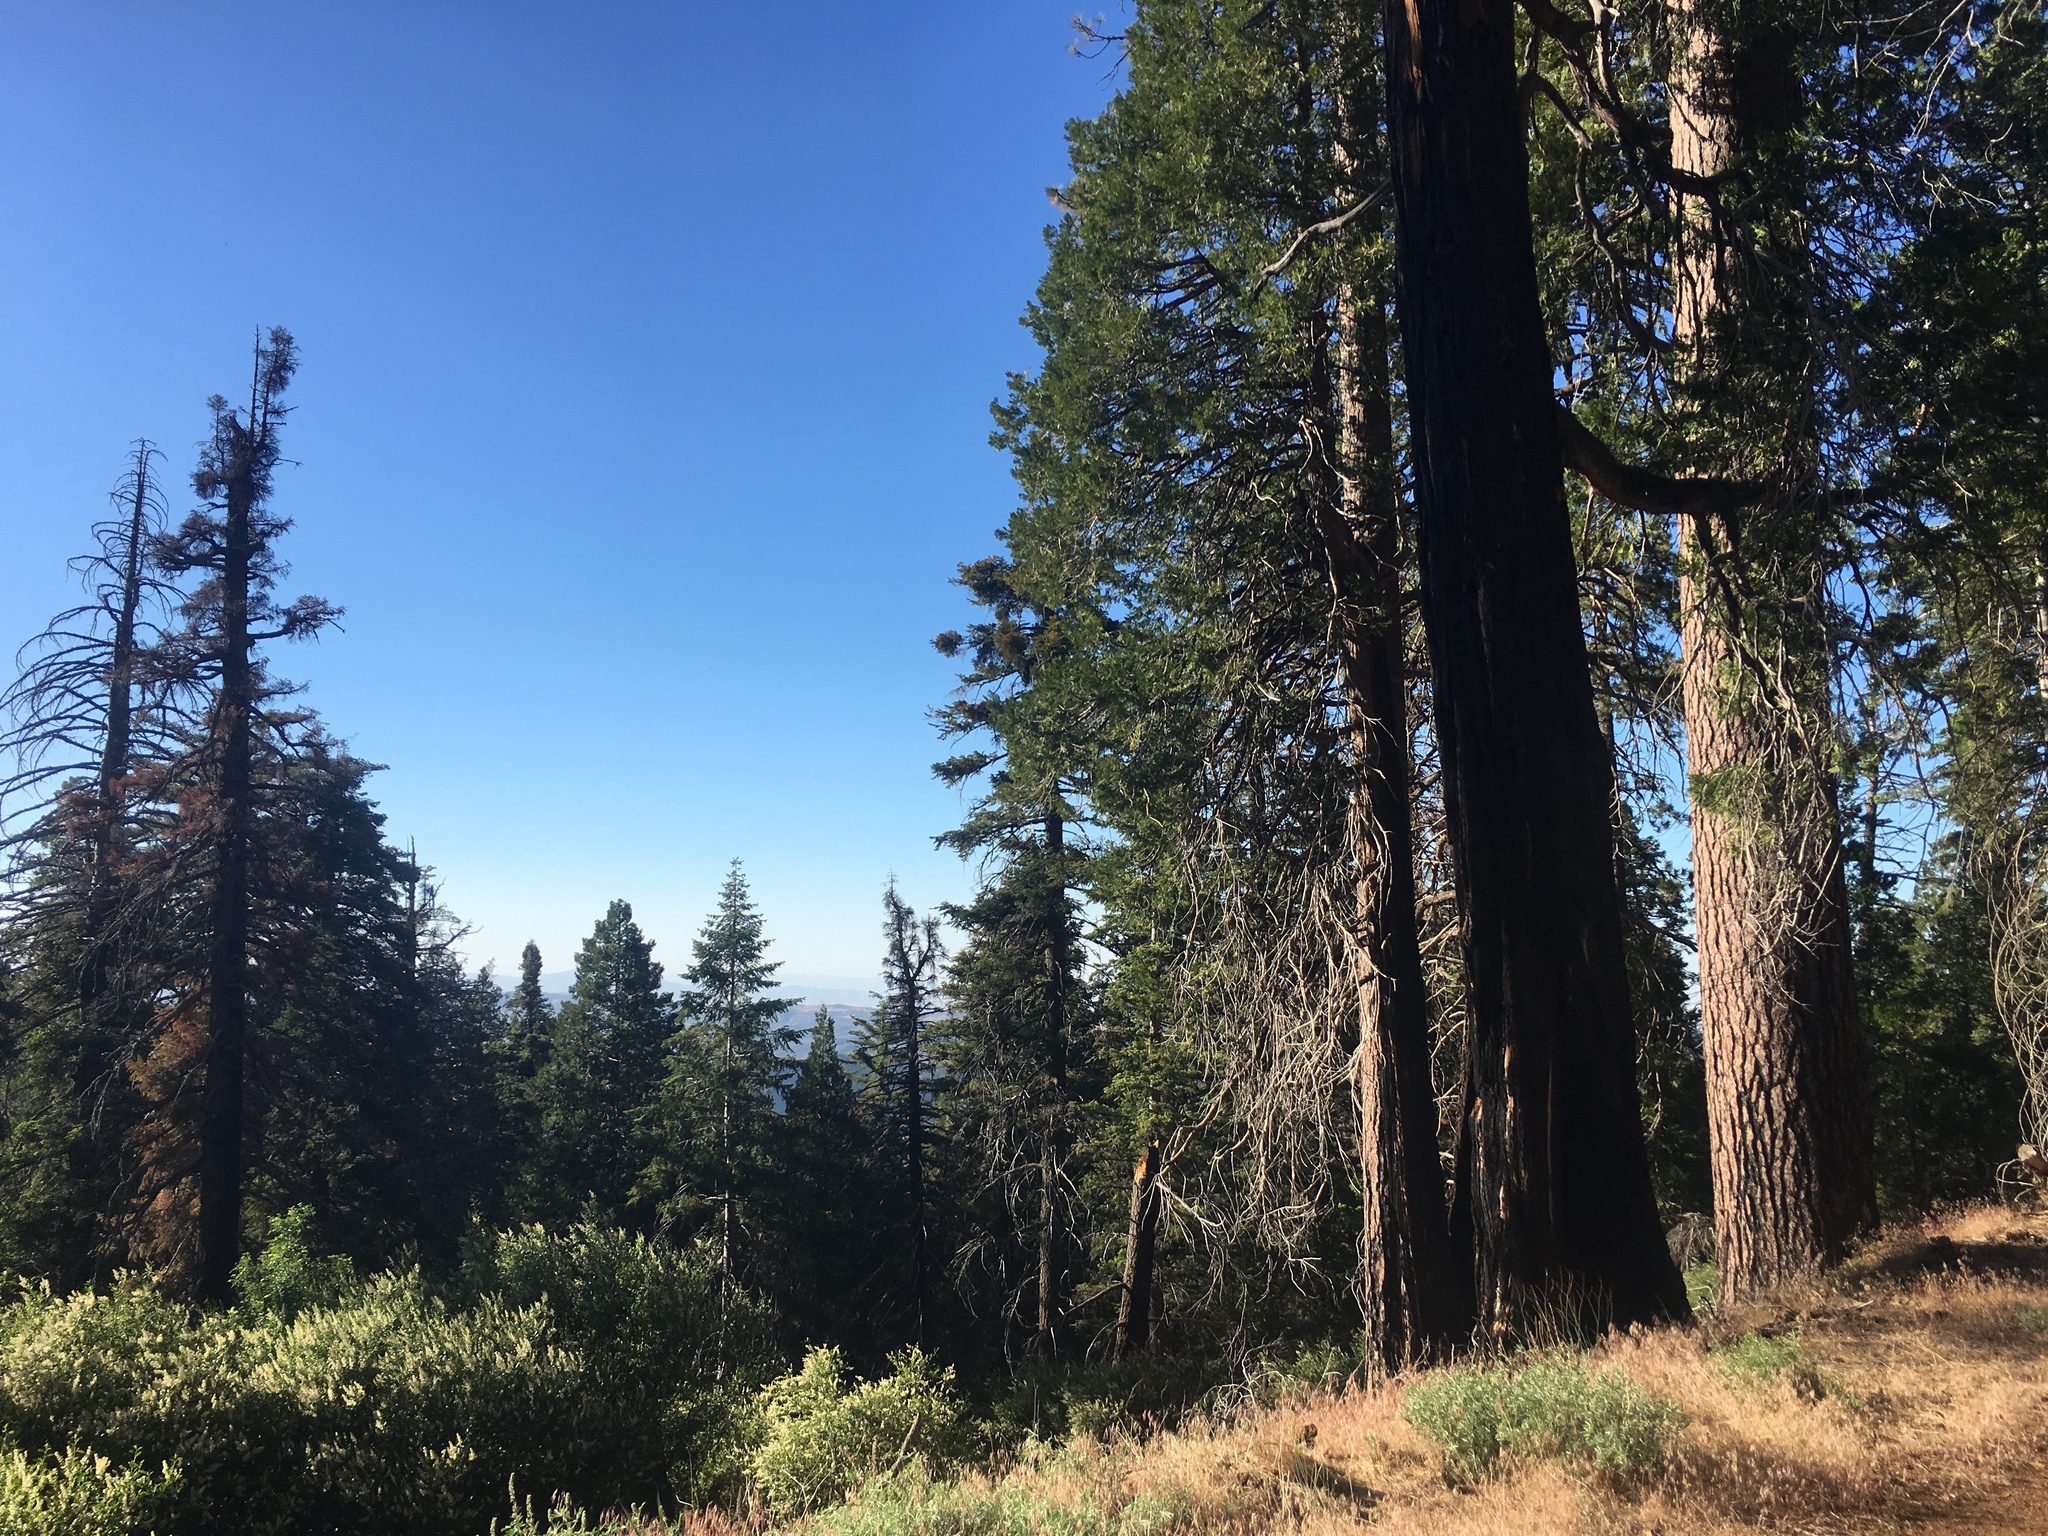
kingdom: Plantae
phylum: Tracheophyta
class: Pinopsida
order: Pinales
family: Cupressaceae
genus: Calocedrus
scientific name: Calocedrus decurrens
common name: Californian incense-cedar
